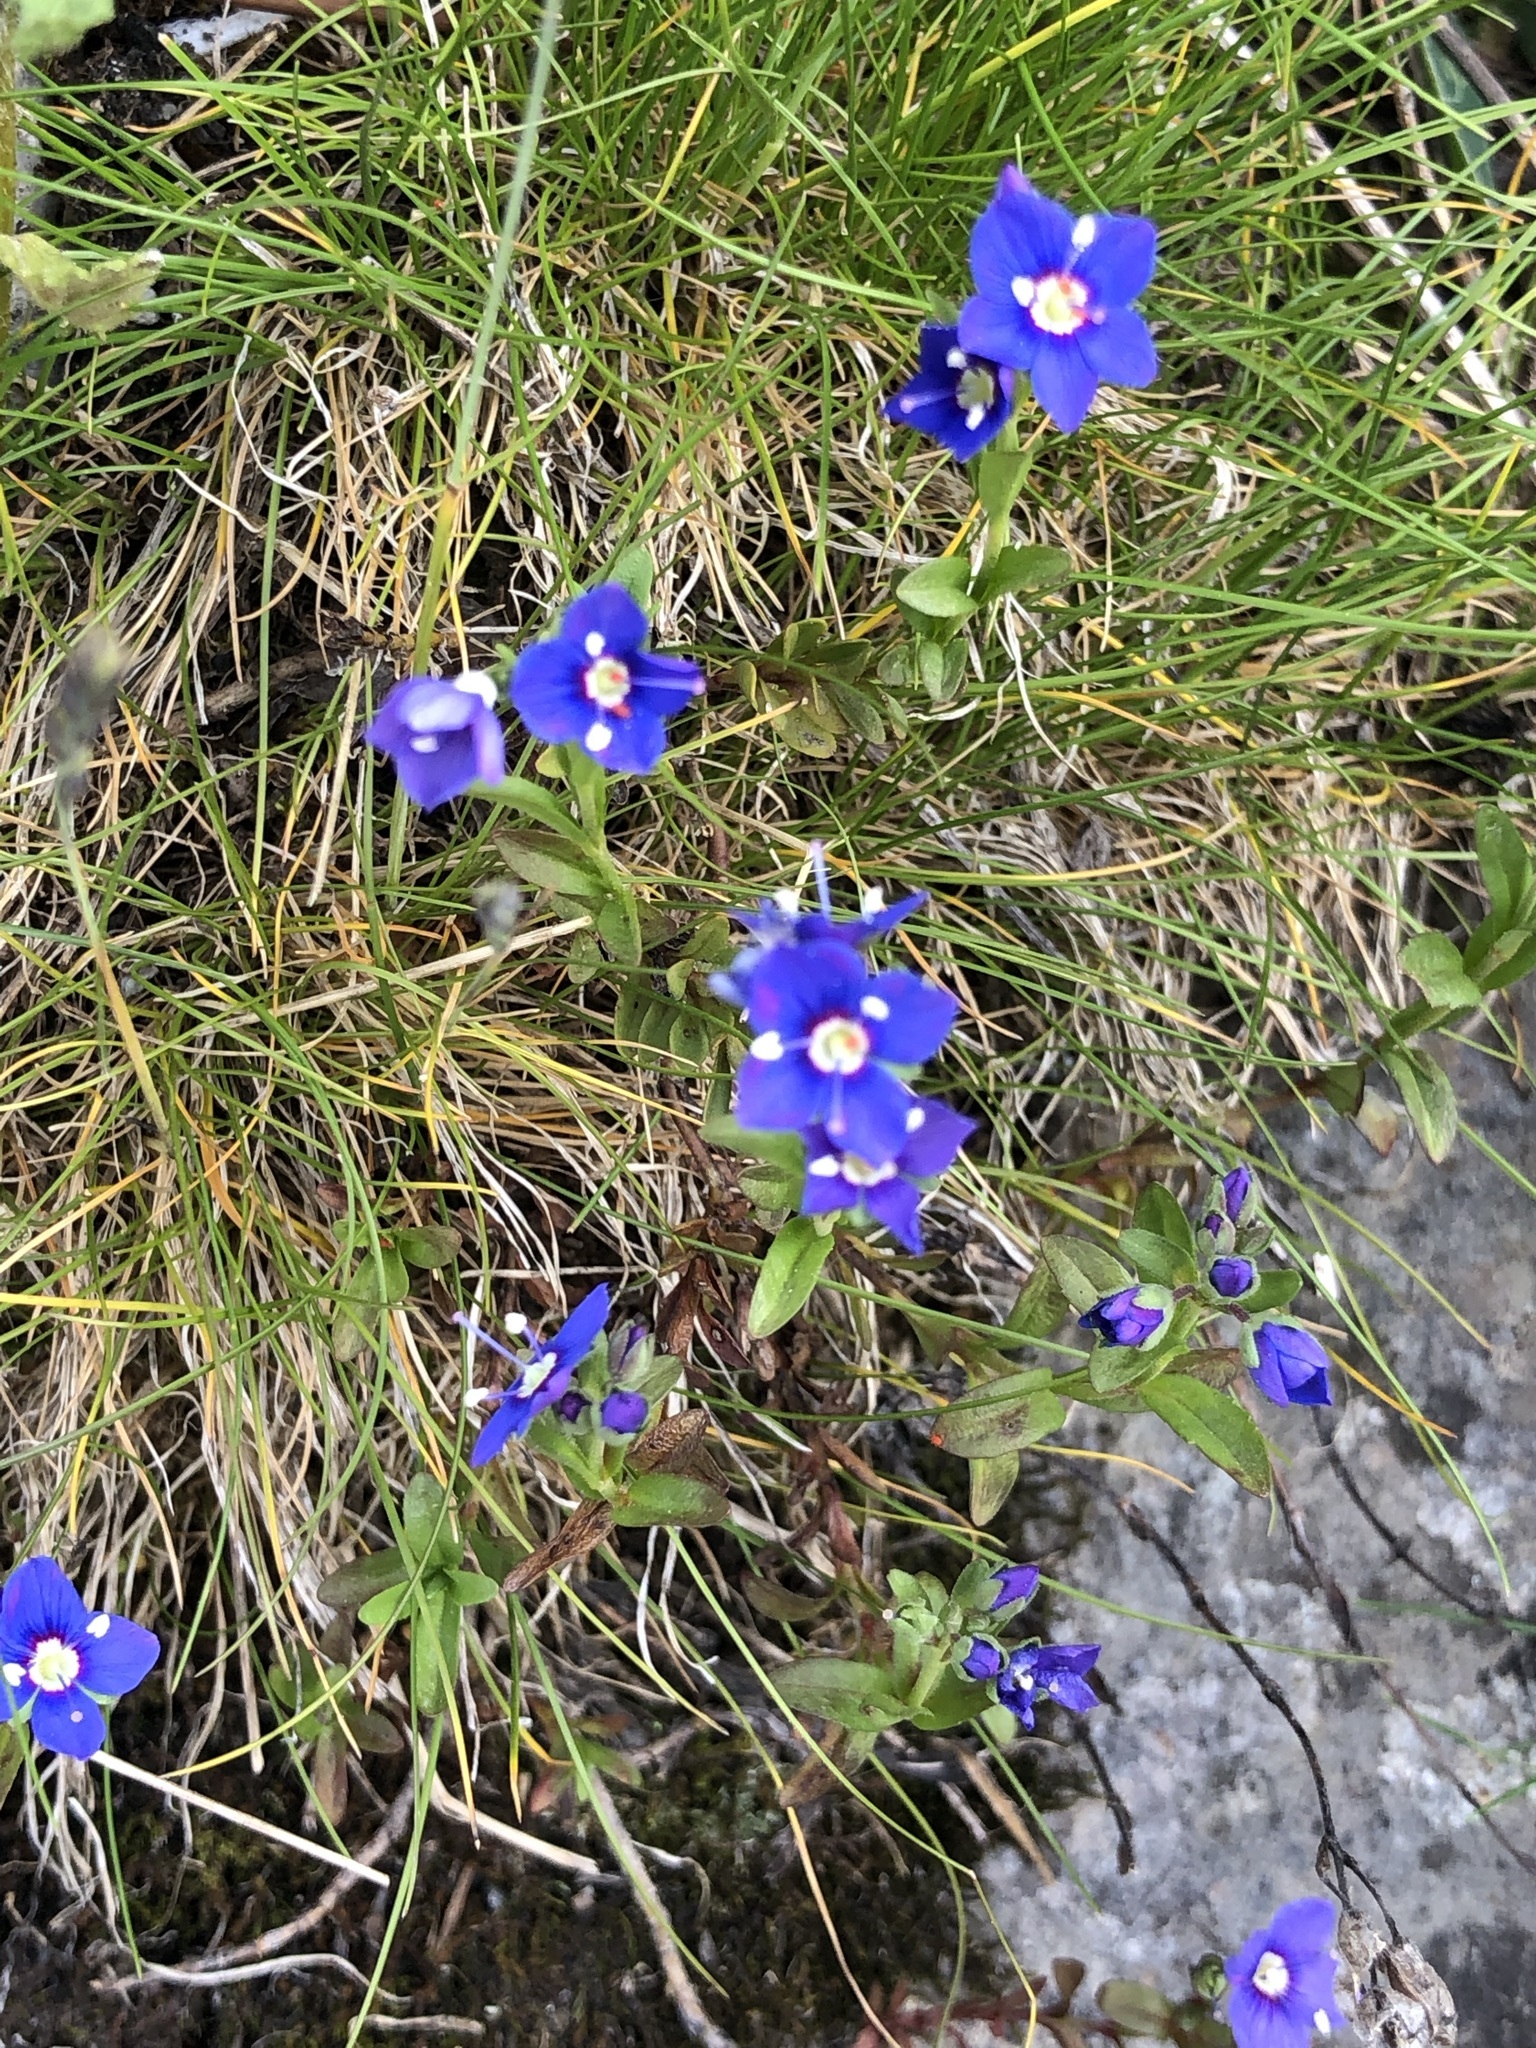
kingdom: Plantae
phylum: Tracheophyta
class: Magnoliopsida
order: Lamiales
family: Plantaginaceae
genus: Veronica
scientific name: Veronica fruticans
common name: Rock speedwell
